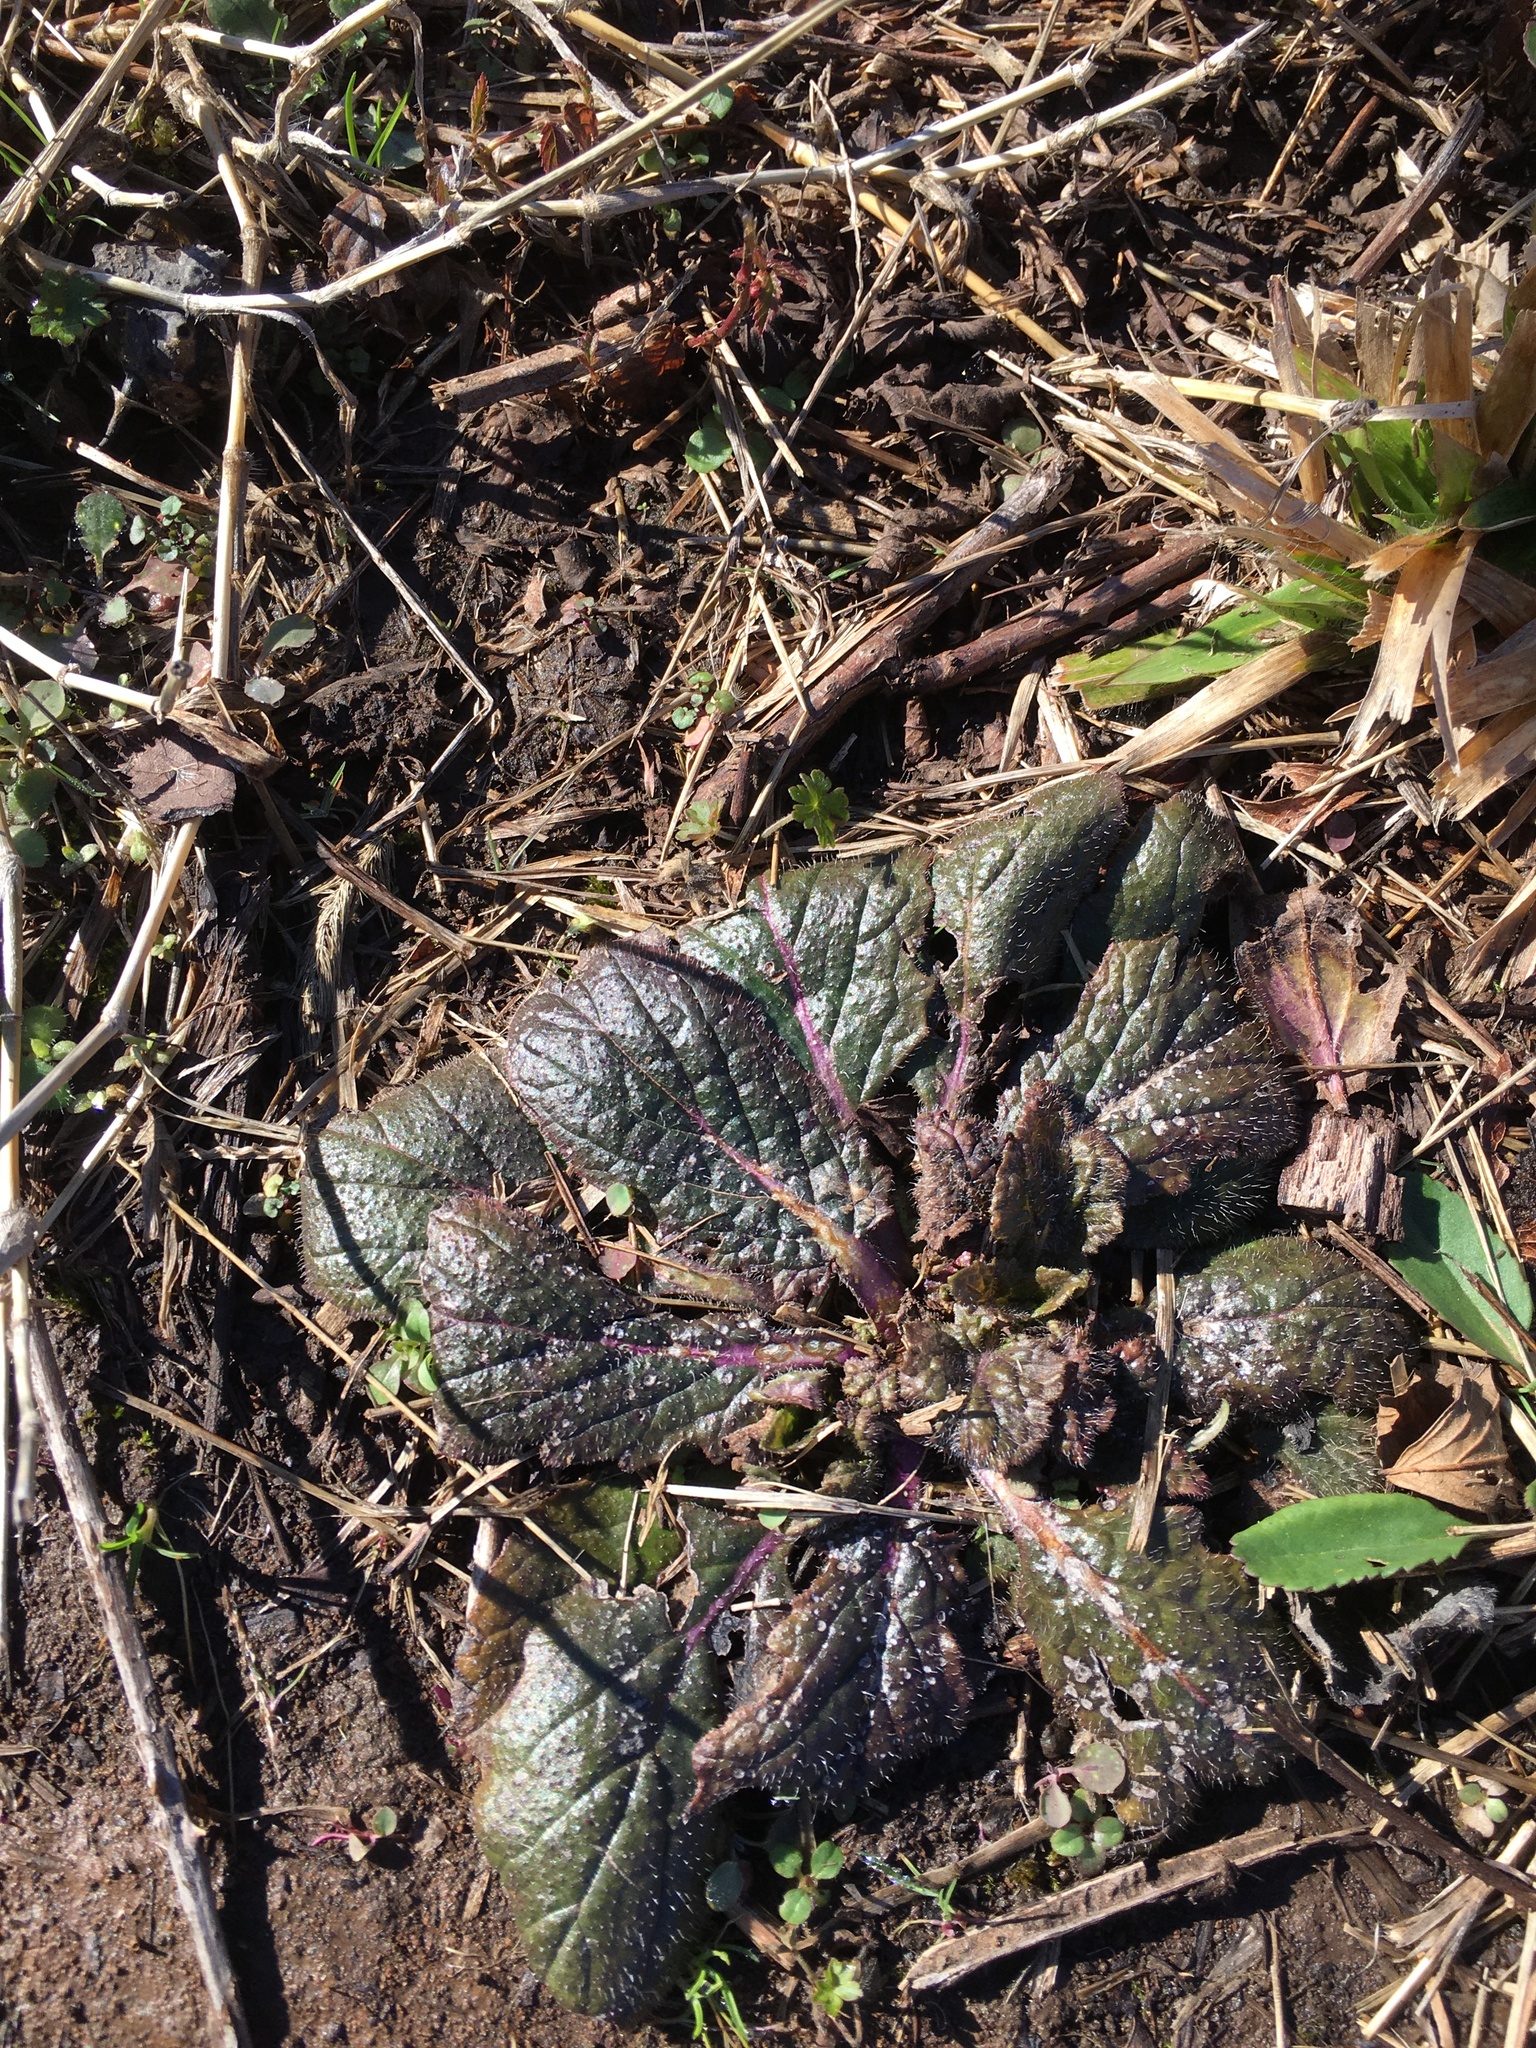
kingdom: Plantae
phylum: Tracheophyta
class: Magnoliopsida
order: Lamiales
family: Lamiaceae
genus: Salvia
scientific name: Salvia lyrata
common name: Cancerweed
